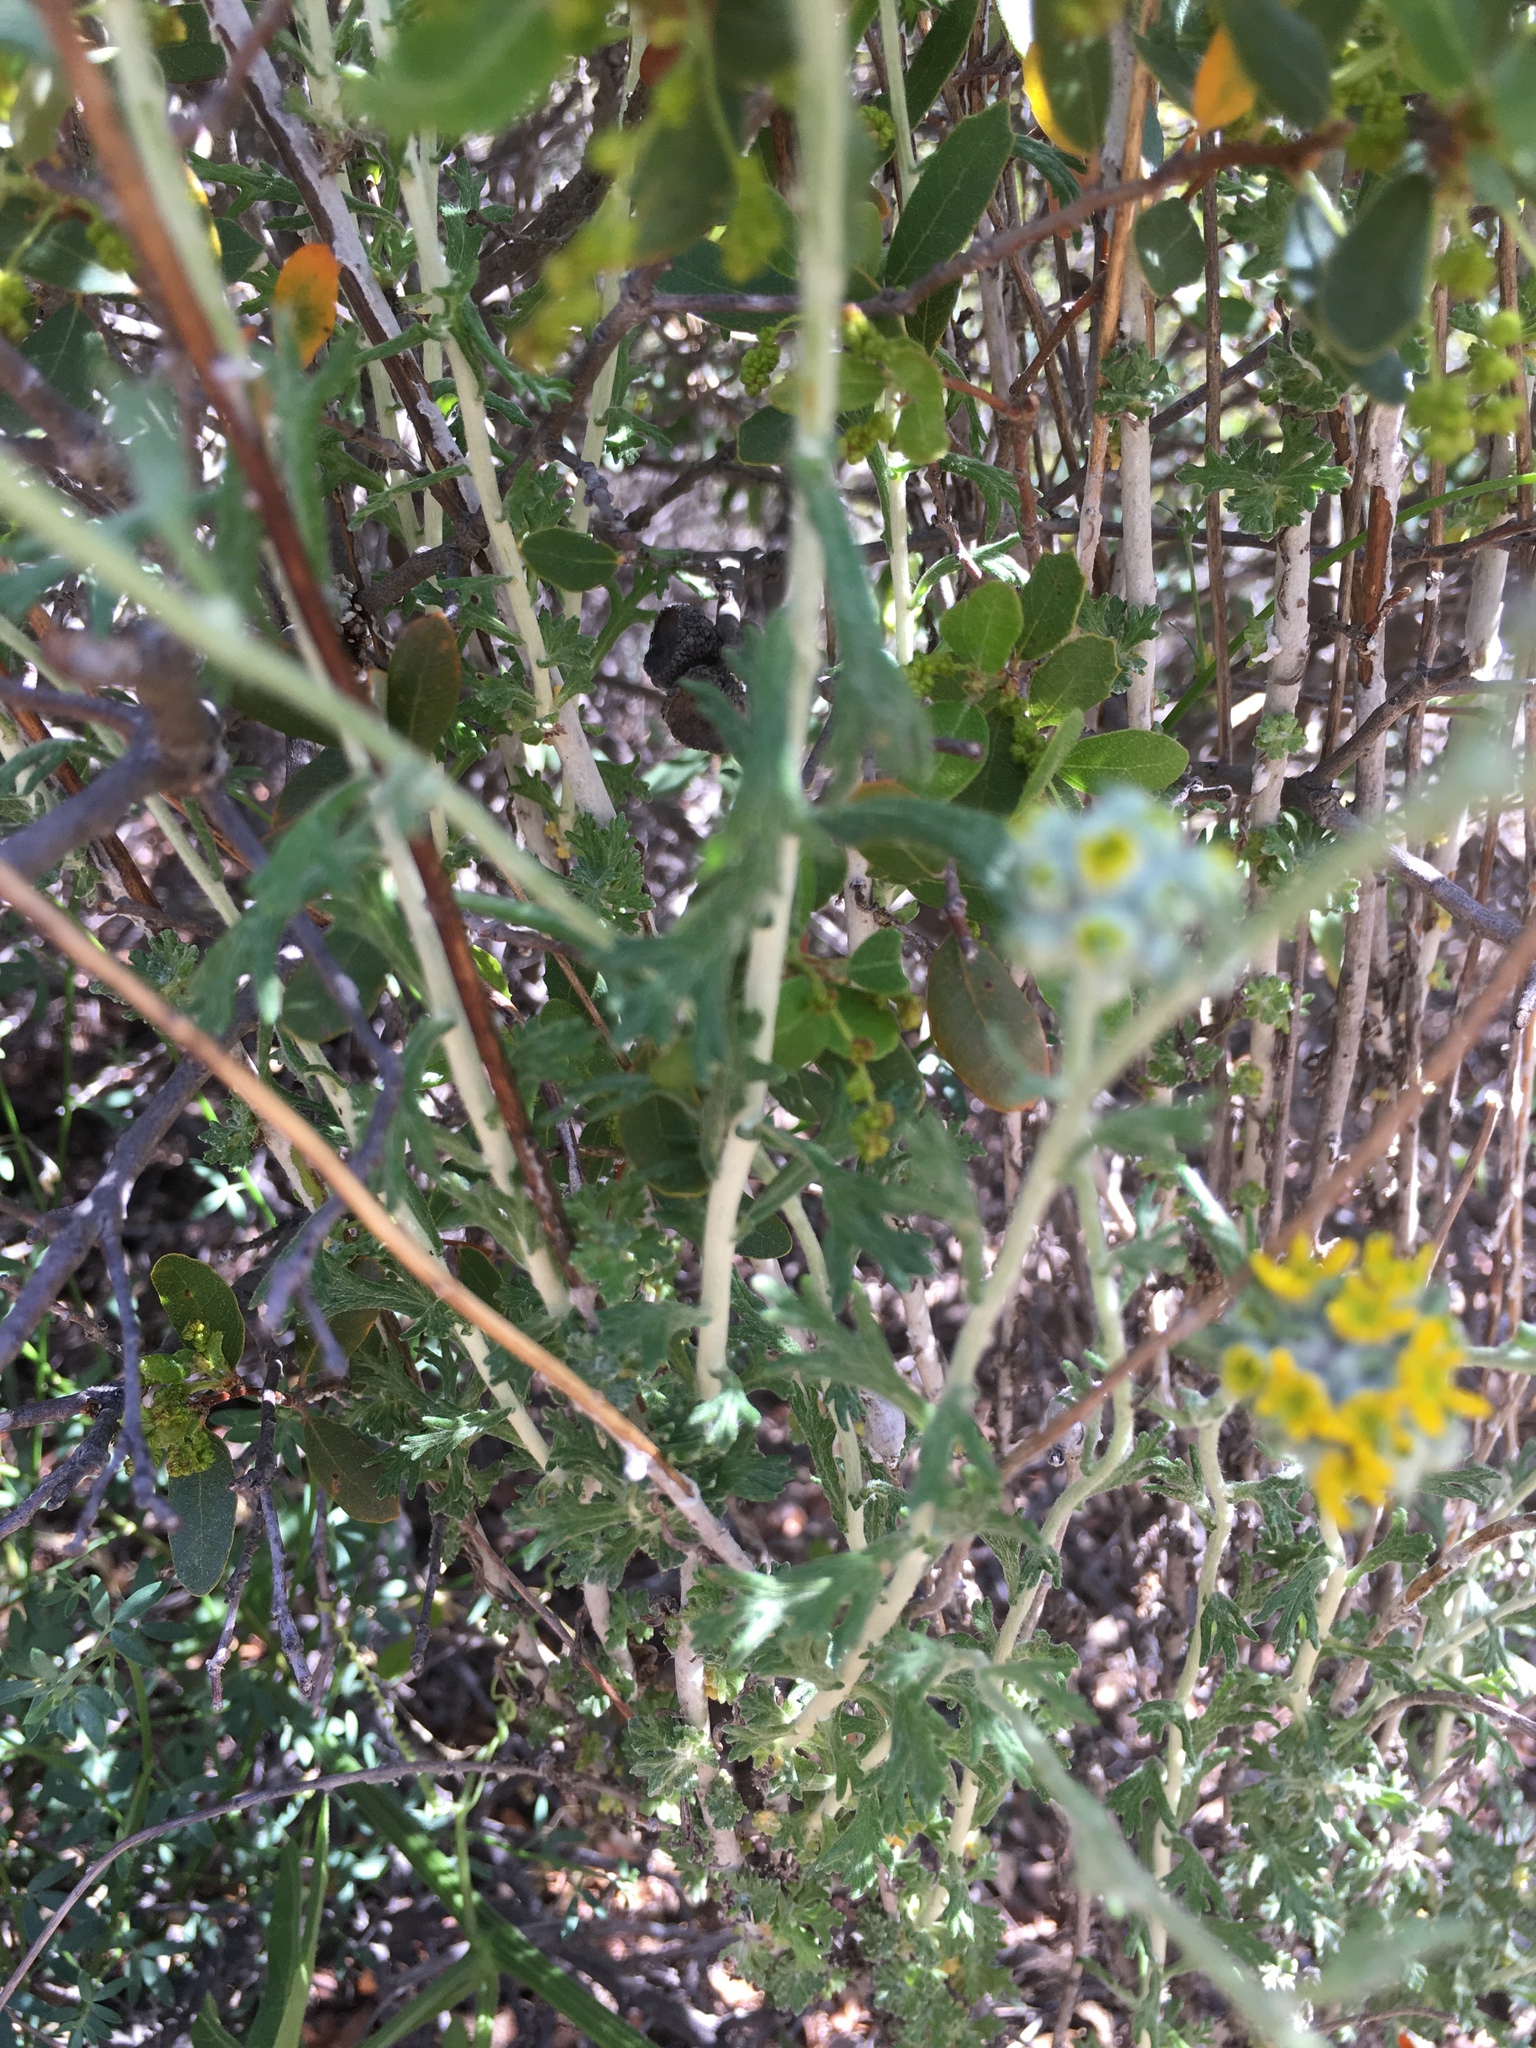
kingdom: Plantae
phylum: Tracheophyta
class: Magnoliopsida
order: Asterales
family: Asteraceae
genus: Eriophyllum
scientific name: Eriophyllum confertiflorum
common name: Golden-yarrow
